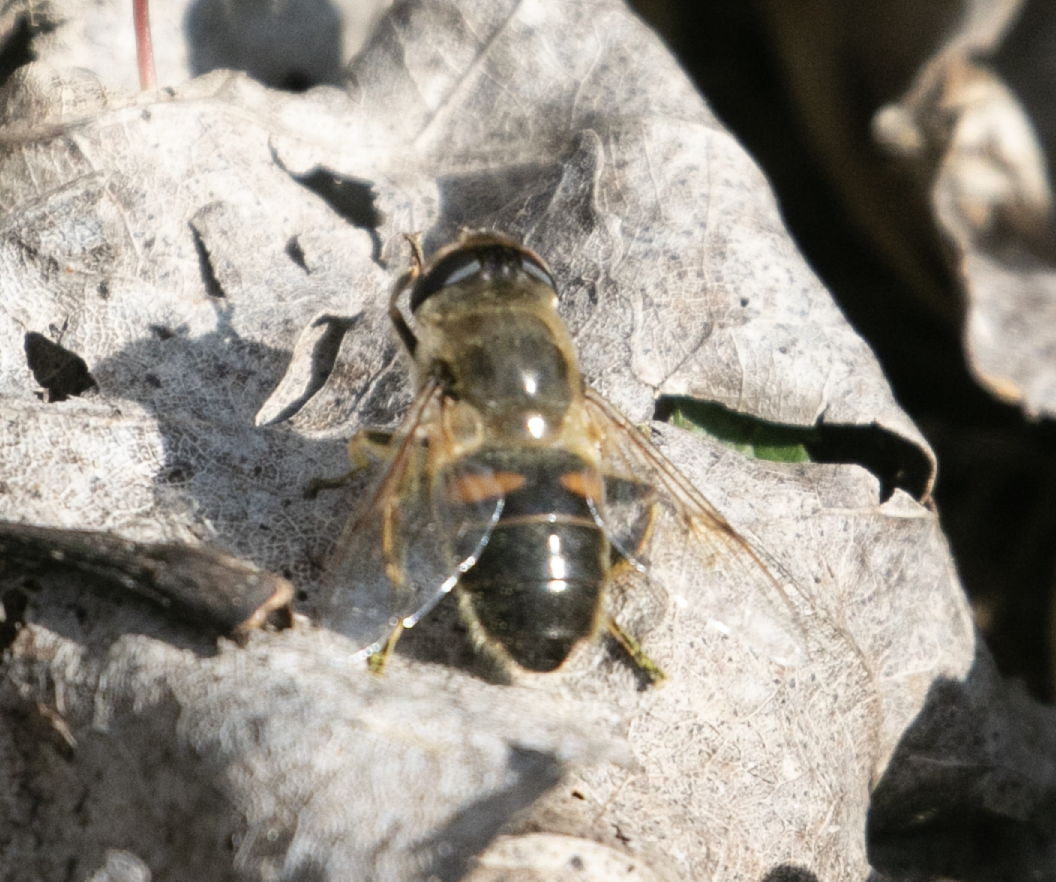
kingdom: Animalia
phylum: Arthropoda
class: Insecta
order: Diptera
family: Syrphidae
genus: Eristalis
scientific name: Eristalis tenax
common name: Drone fly
